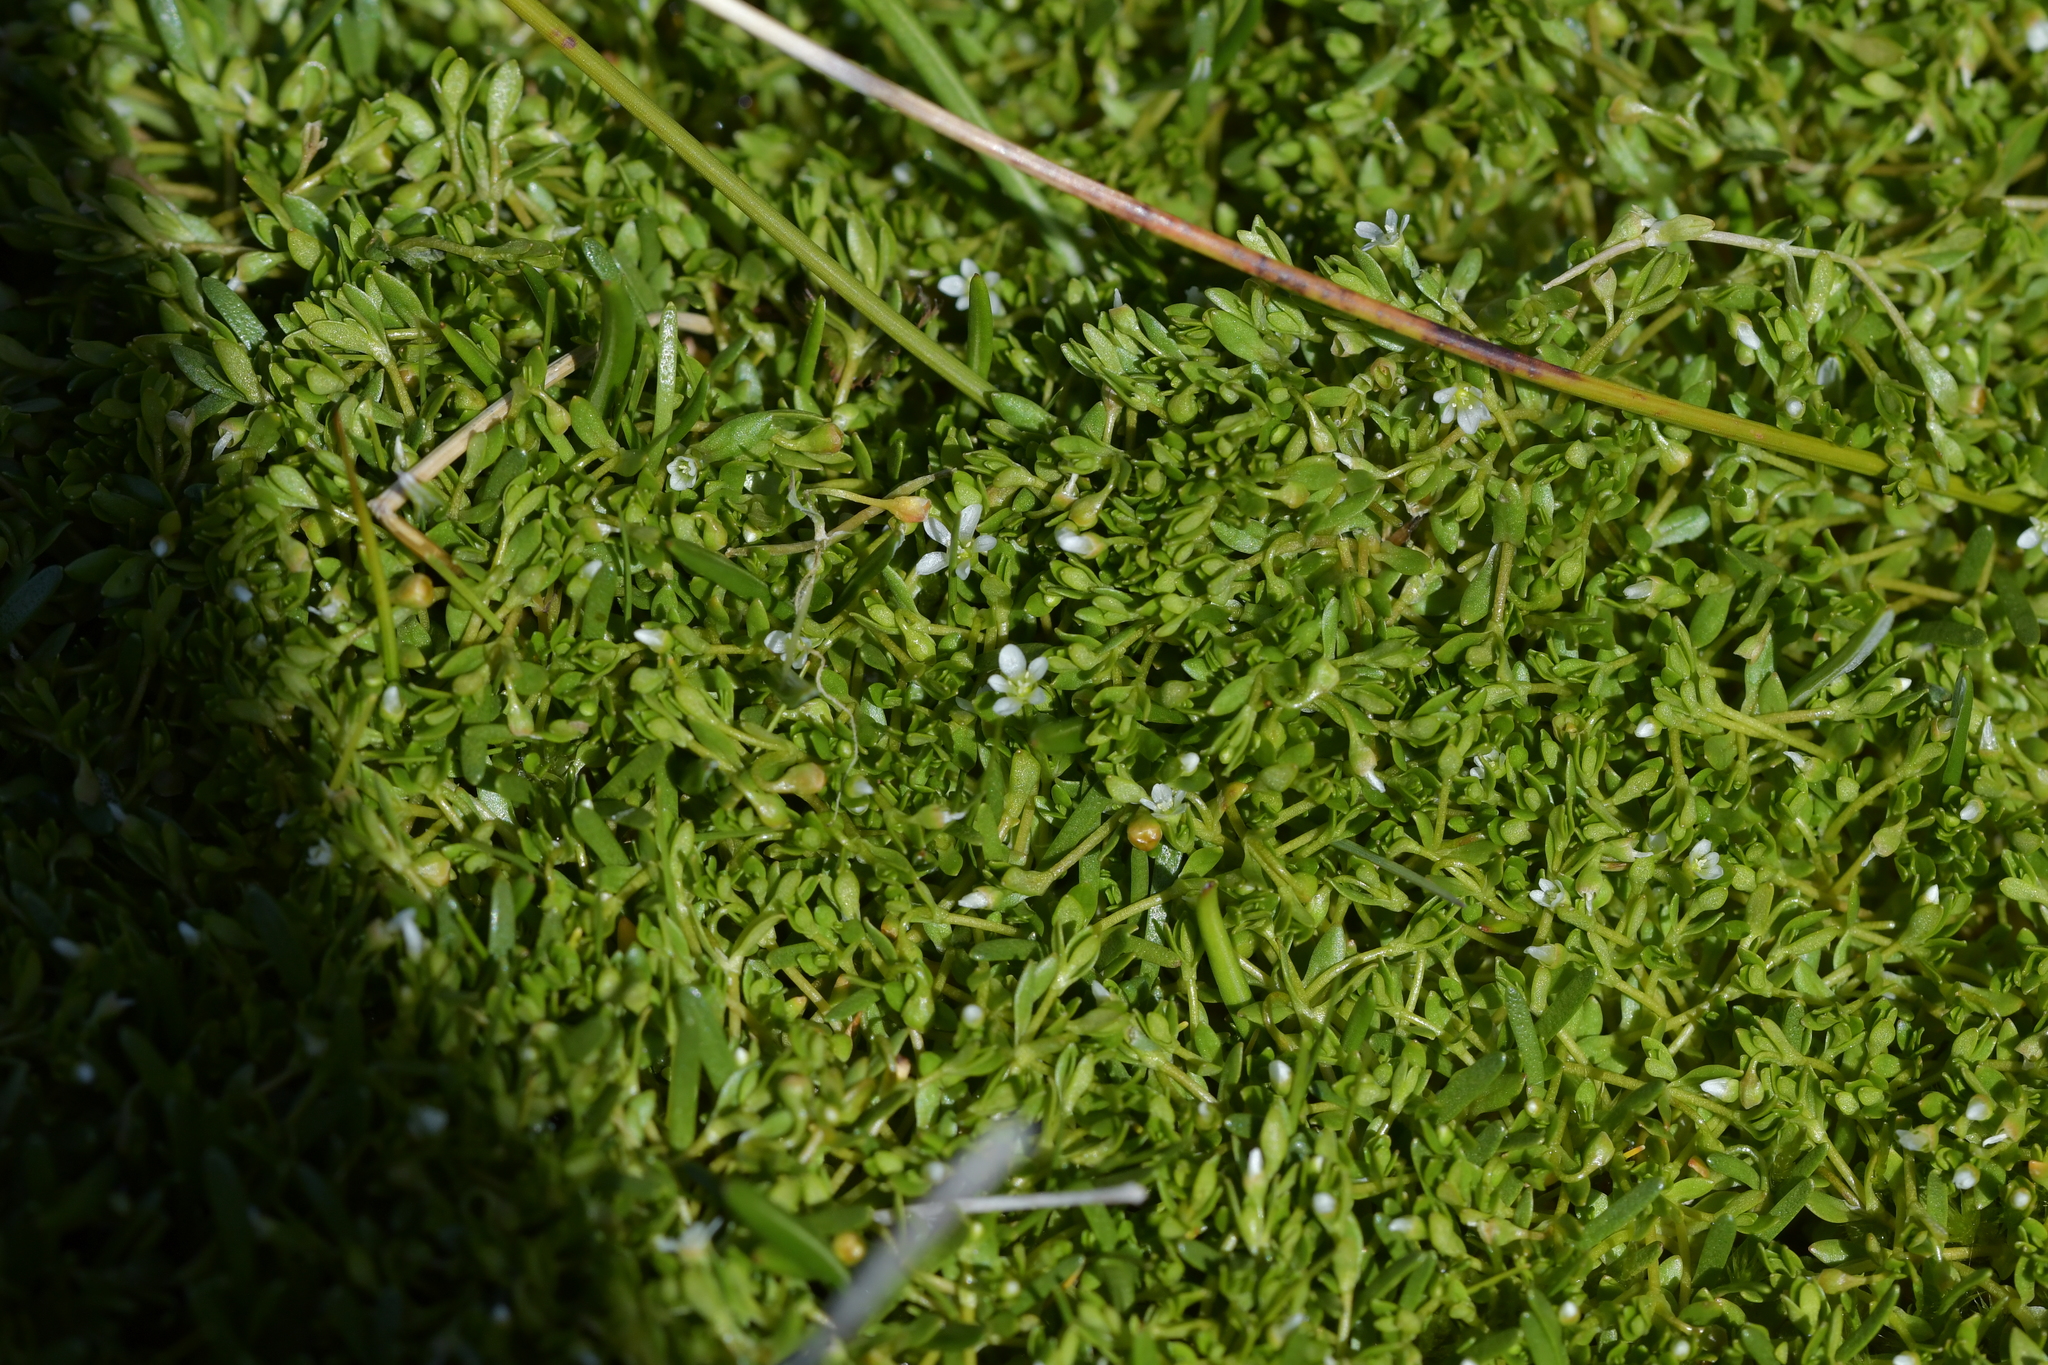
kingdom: Plantae
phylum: Tracheophyta
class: Magnoliopsida
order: Caryophyllales
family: Montiaceae
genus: Montia
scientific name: Montia fontana
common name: Blinks
